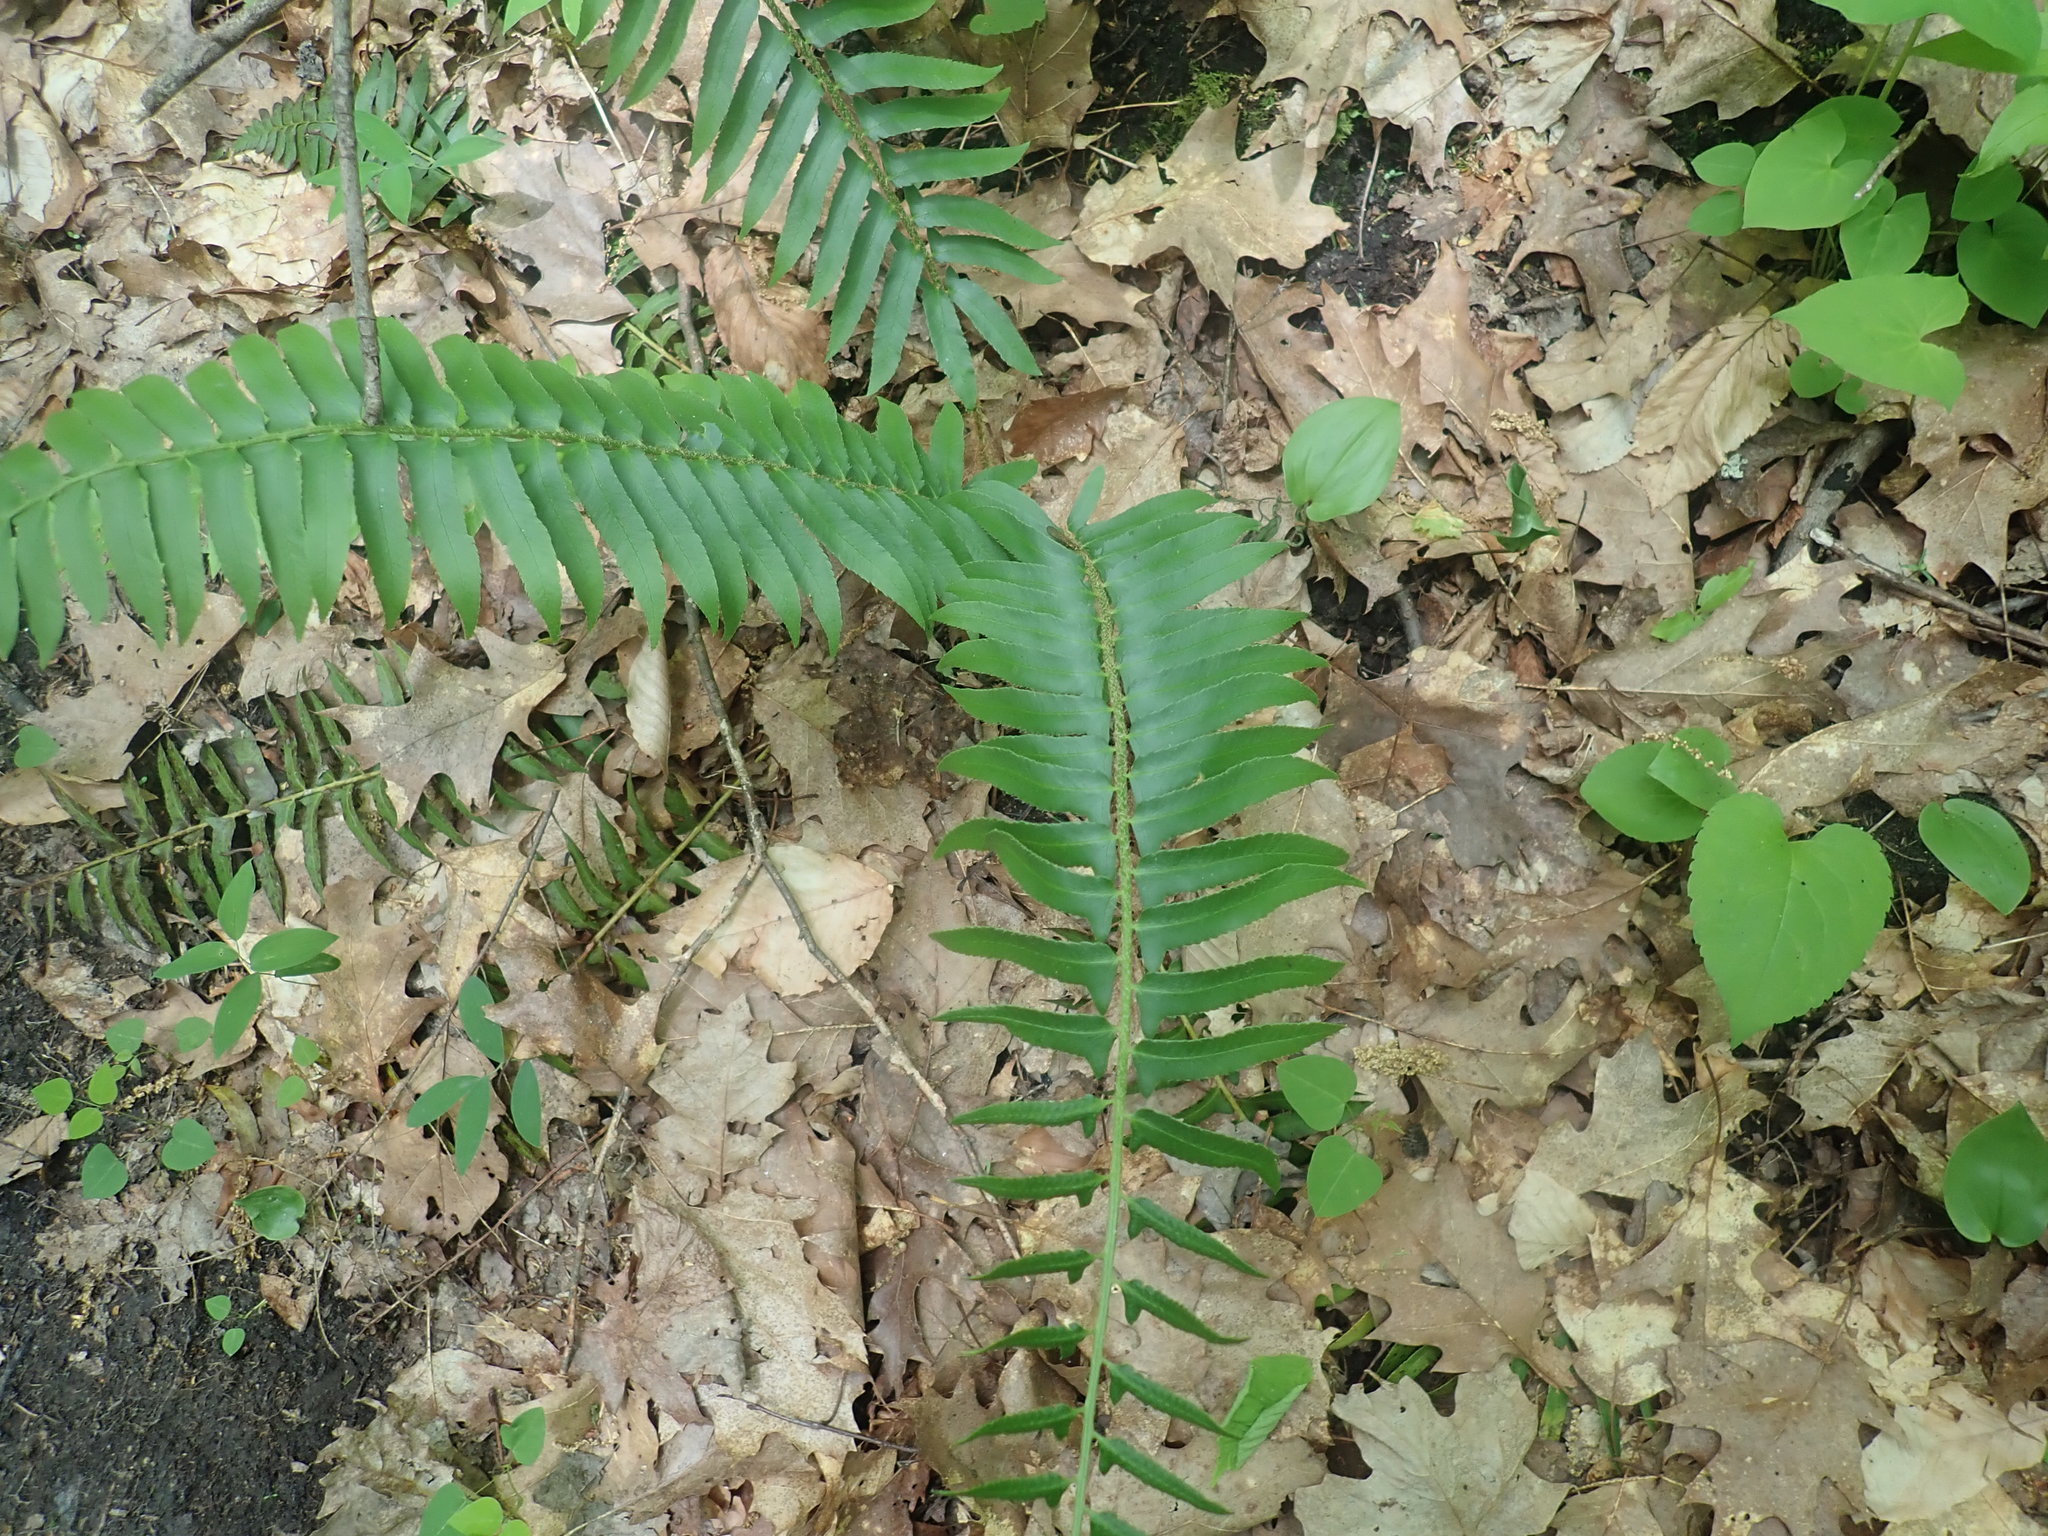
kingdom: Plantae
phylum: Tracheophyta
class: Polypodiopsida
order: Polypodiales
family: Dryopteridaceae
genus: Polystichum
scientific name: Polystichum acrostichoides
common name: Christmas fern
